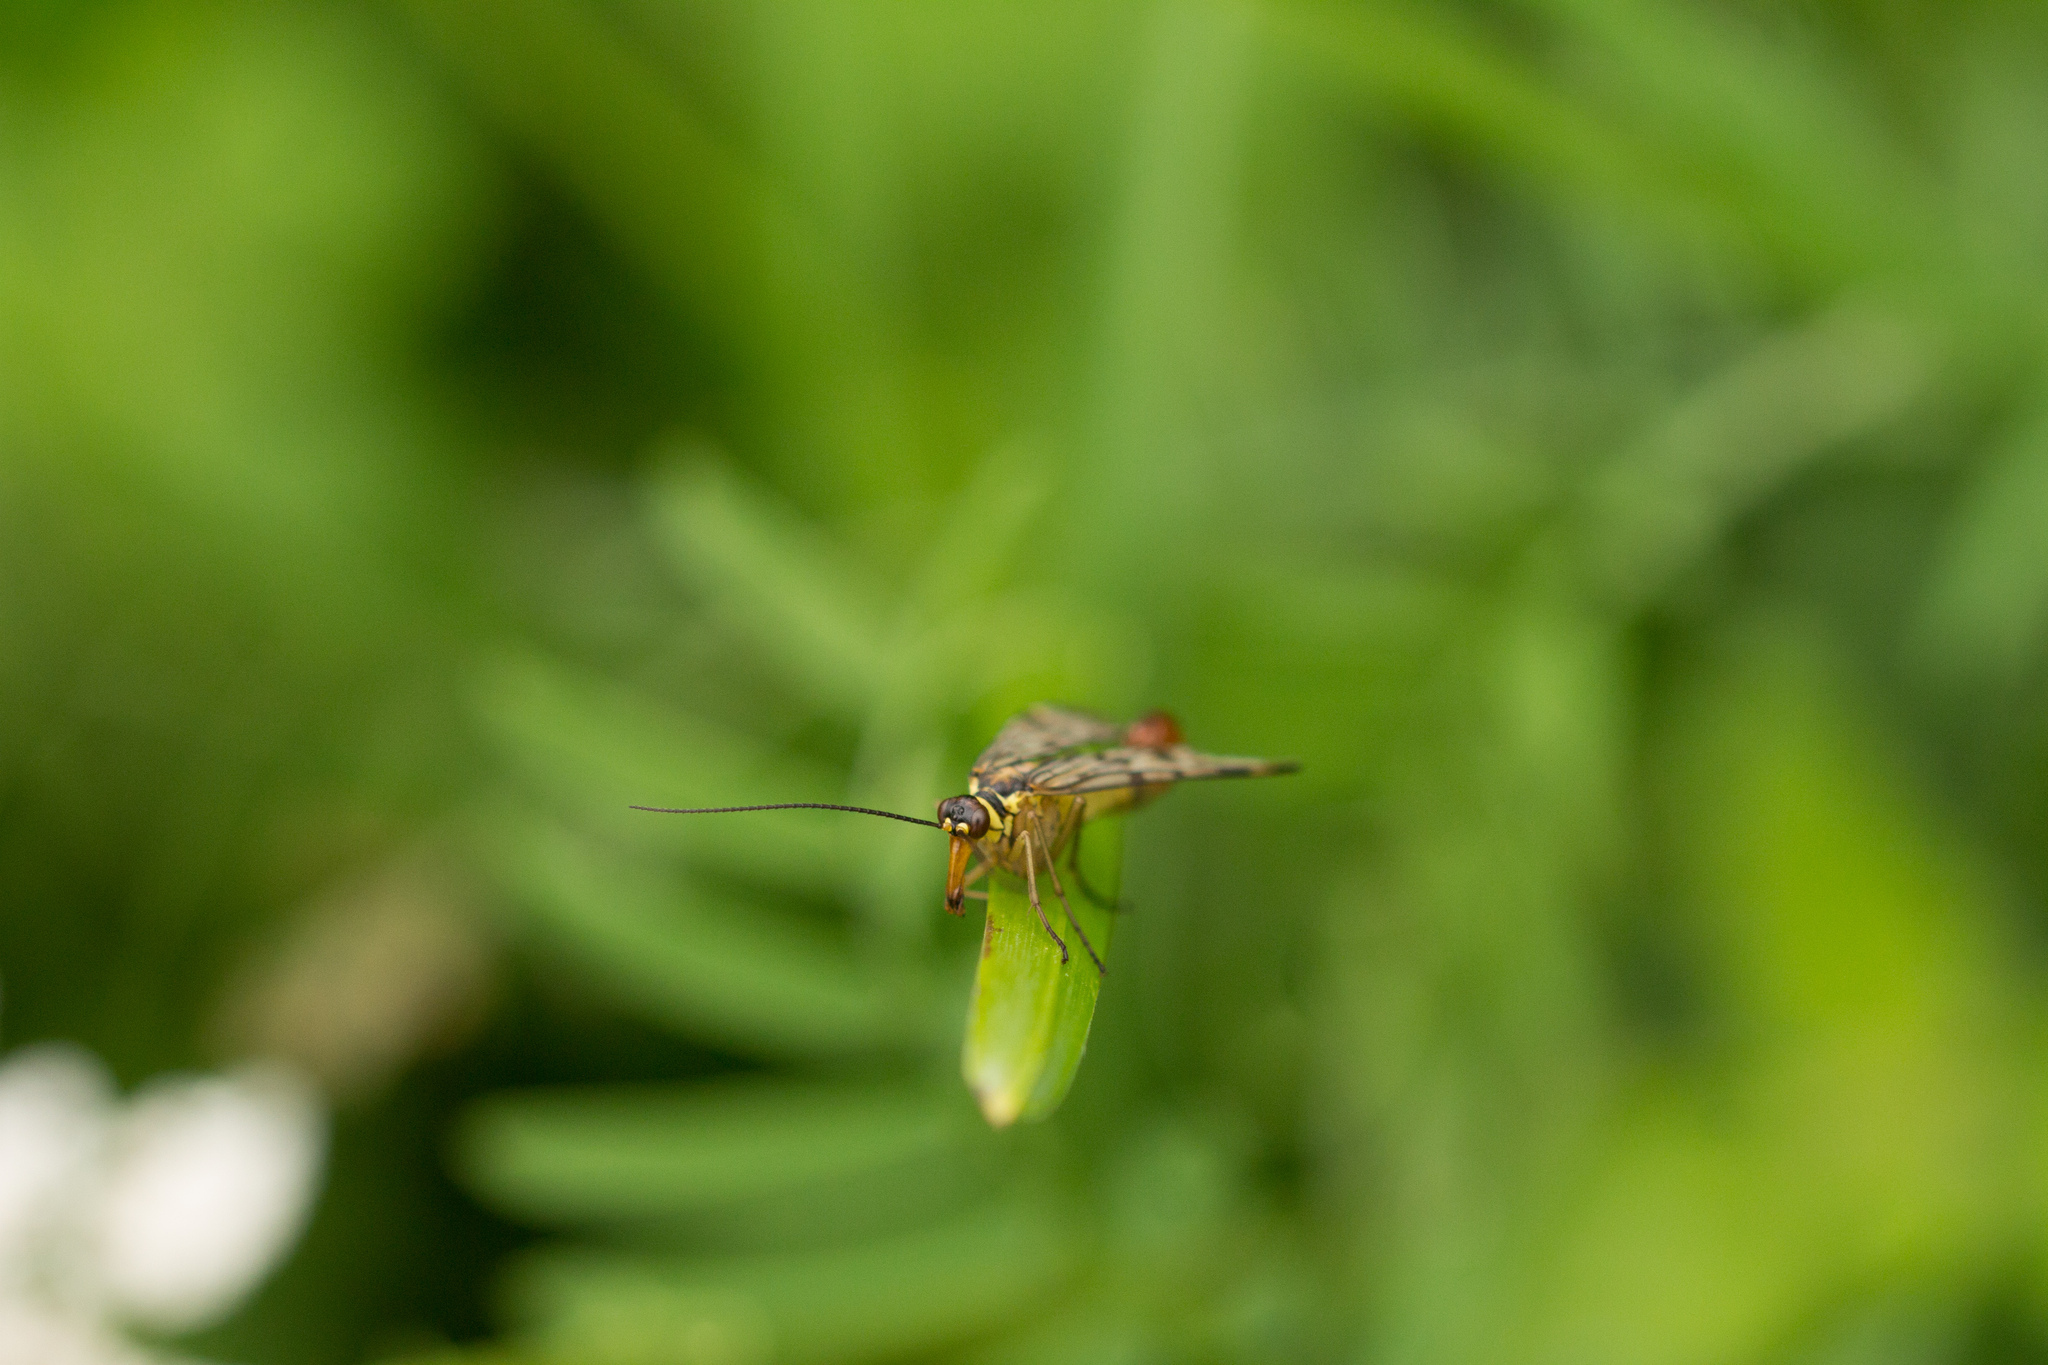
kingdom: Animalia
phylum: Arthropoda
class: Insecta
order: Mecoptera
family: Panorpidae
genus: Panorpa
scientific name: Panorpa communis
